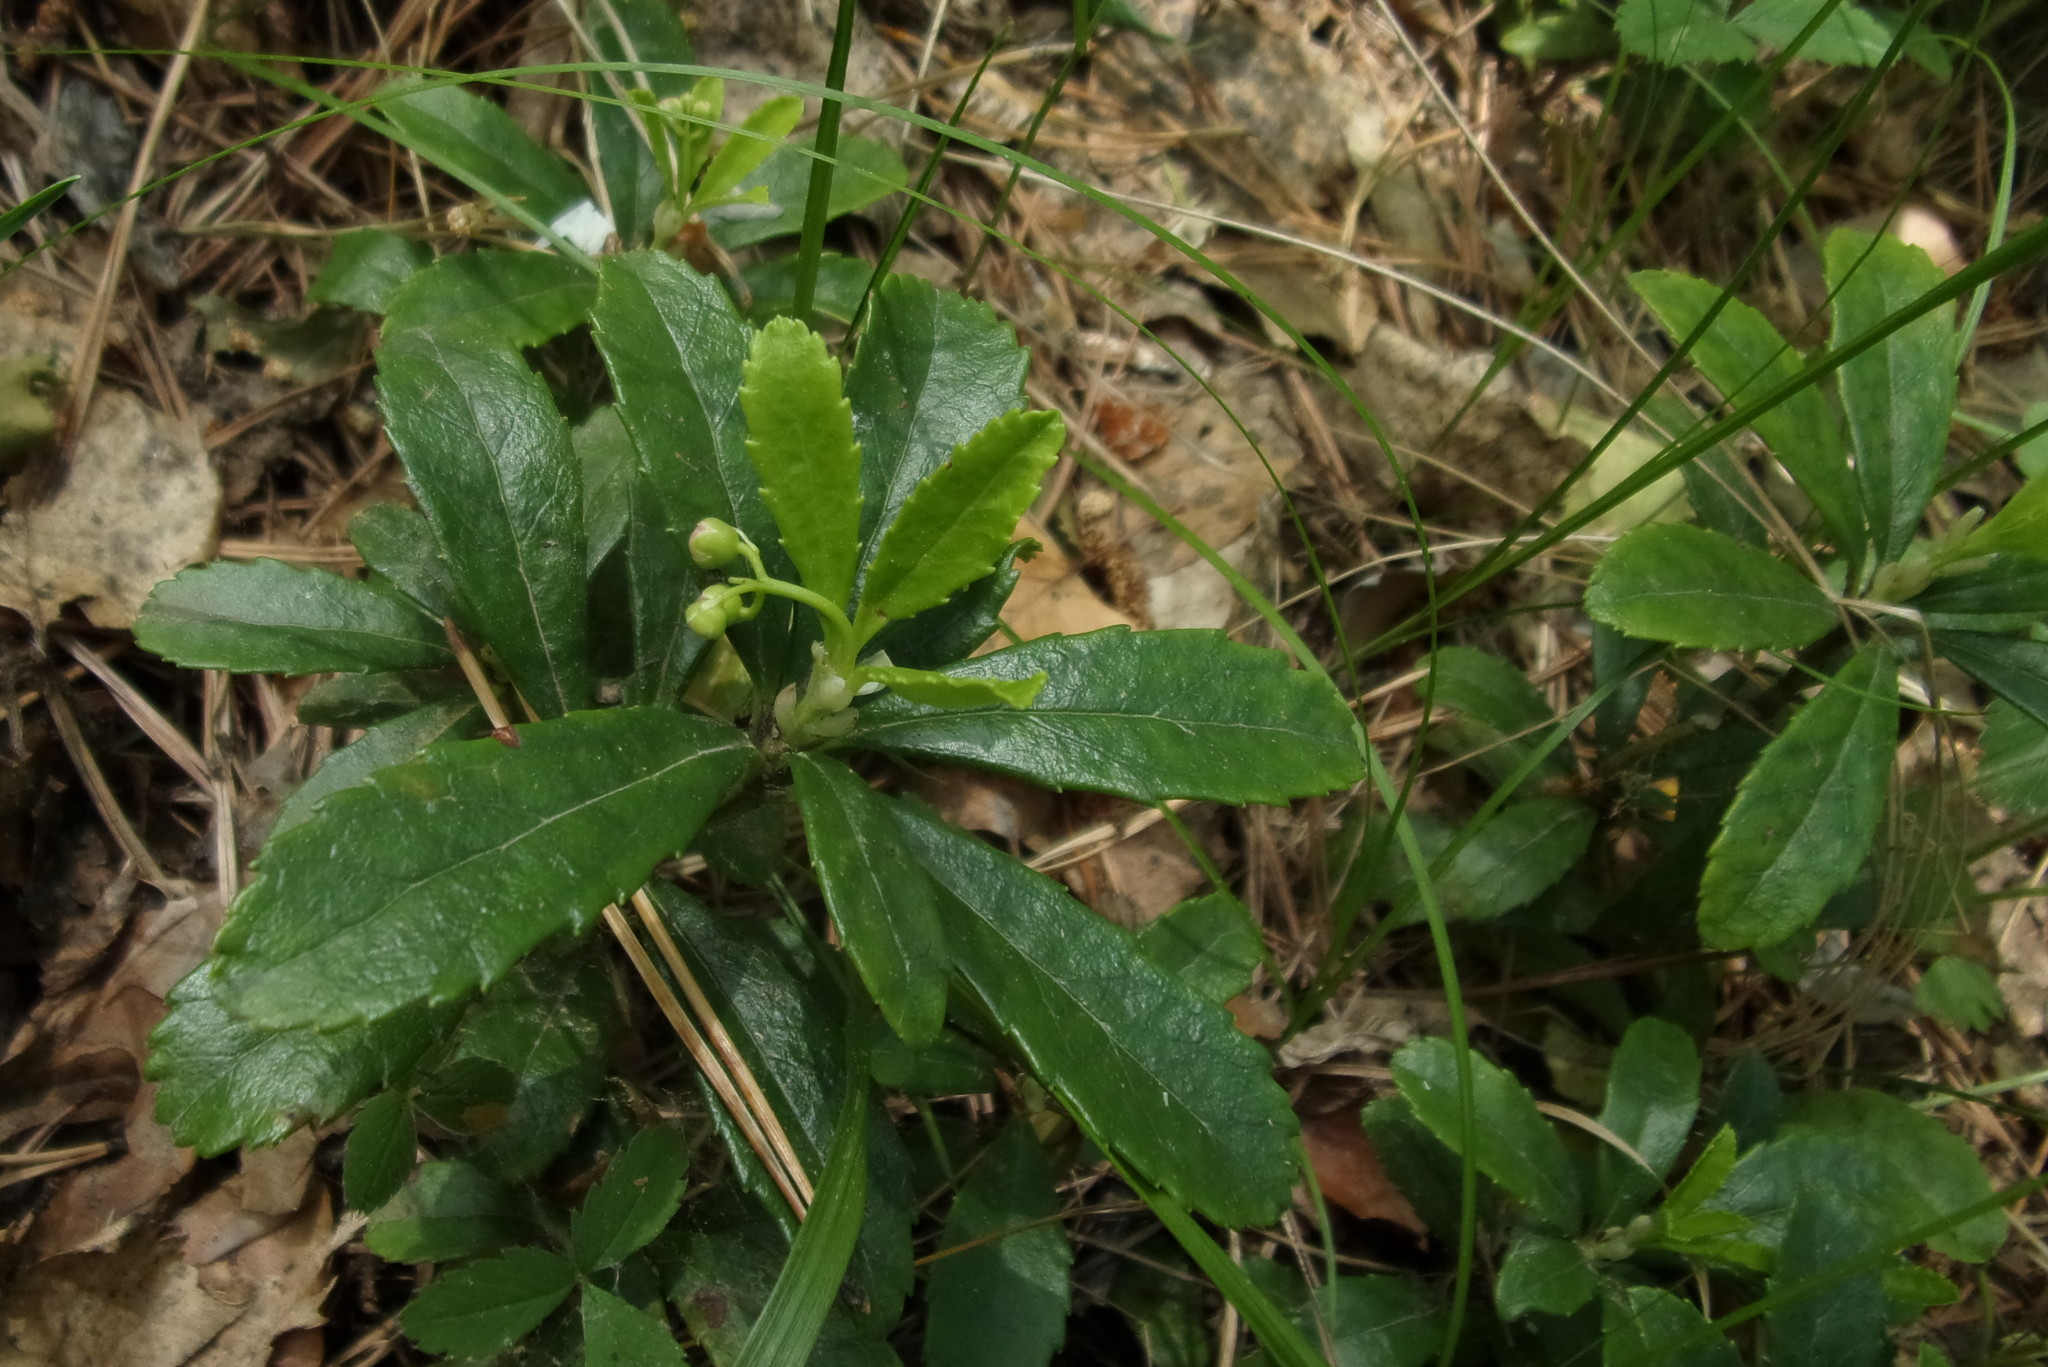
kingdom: Plantae
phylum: Tracheophyta
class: Magnoliopsida
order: Ericales
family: Ericaceae
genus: Chimaphila
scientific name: Chimaphila umbellata
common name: Pipsissewa
